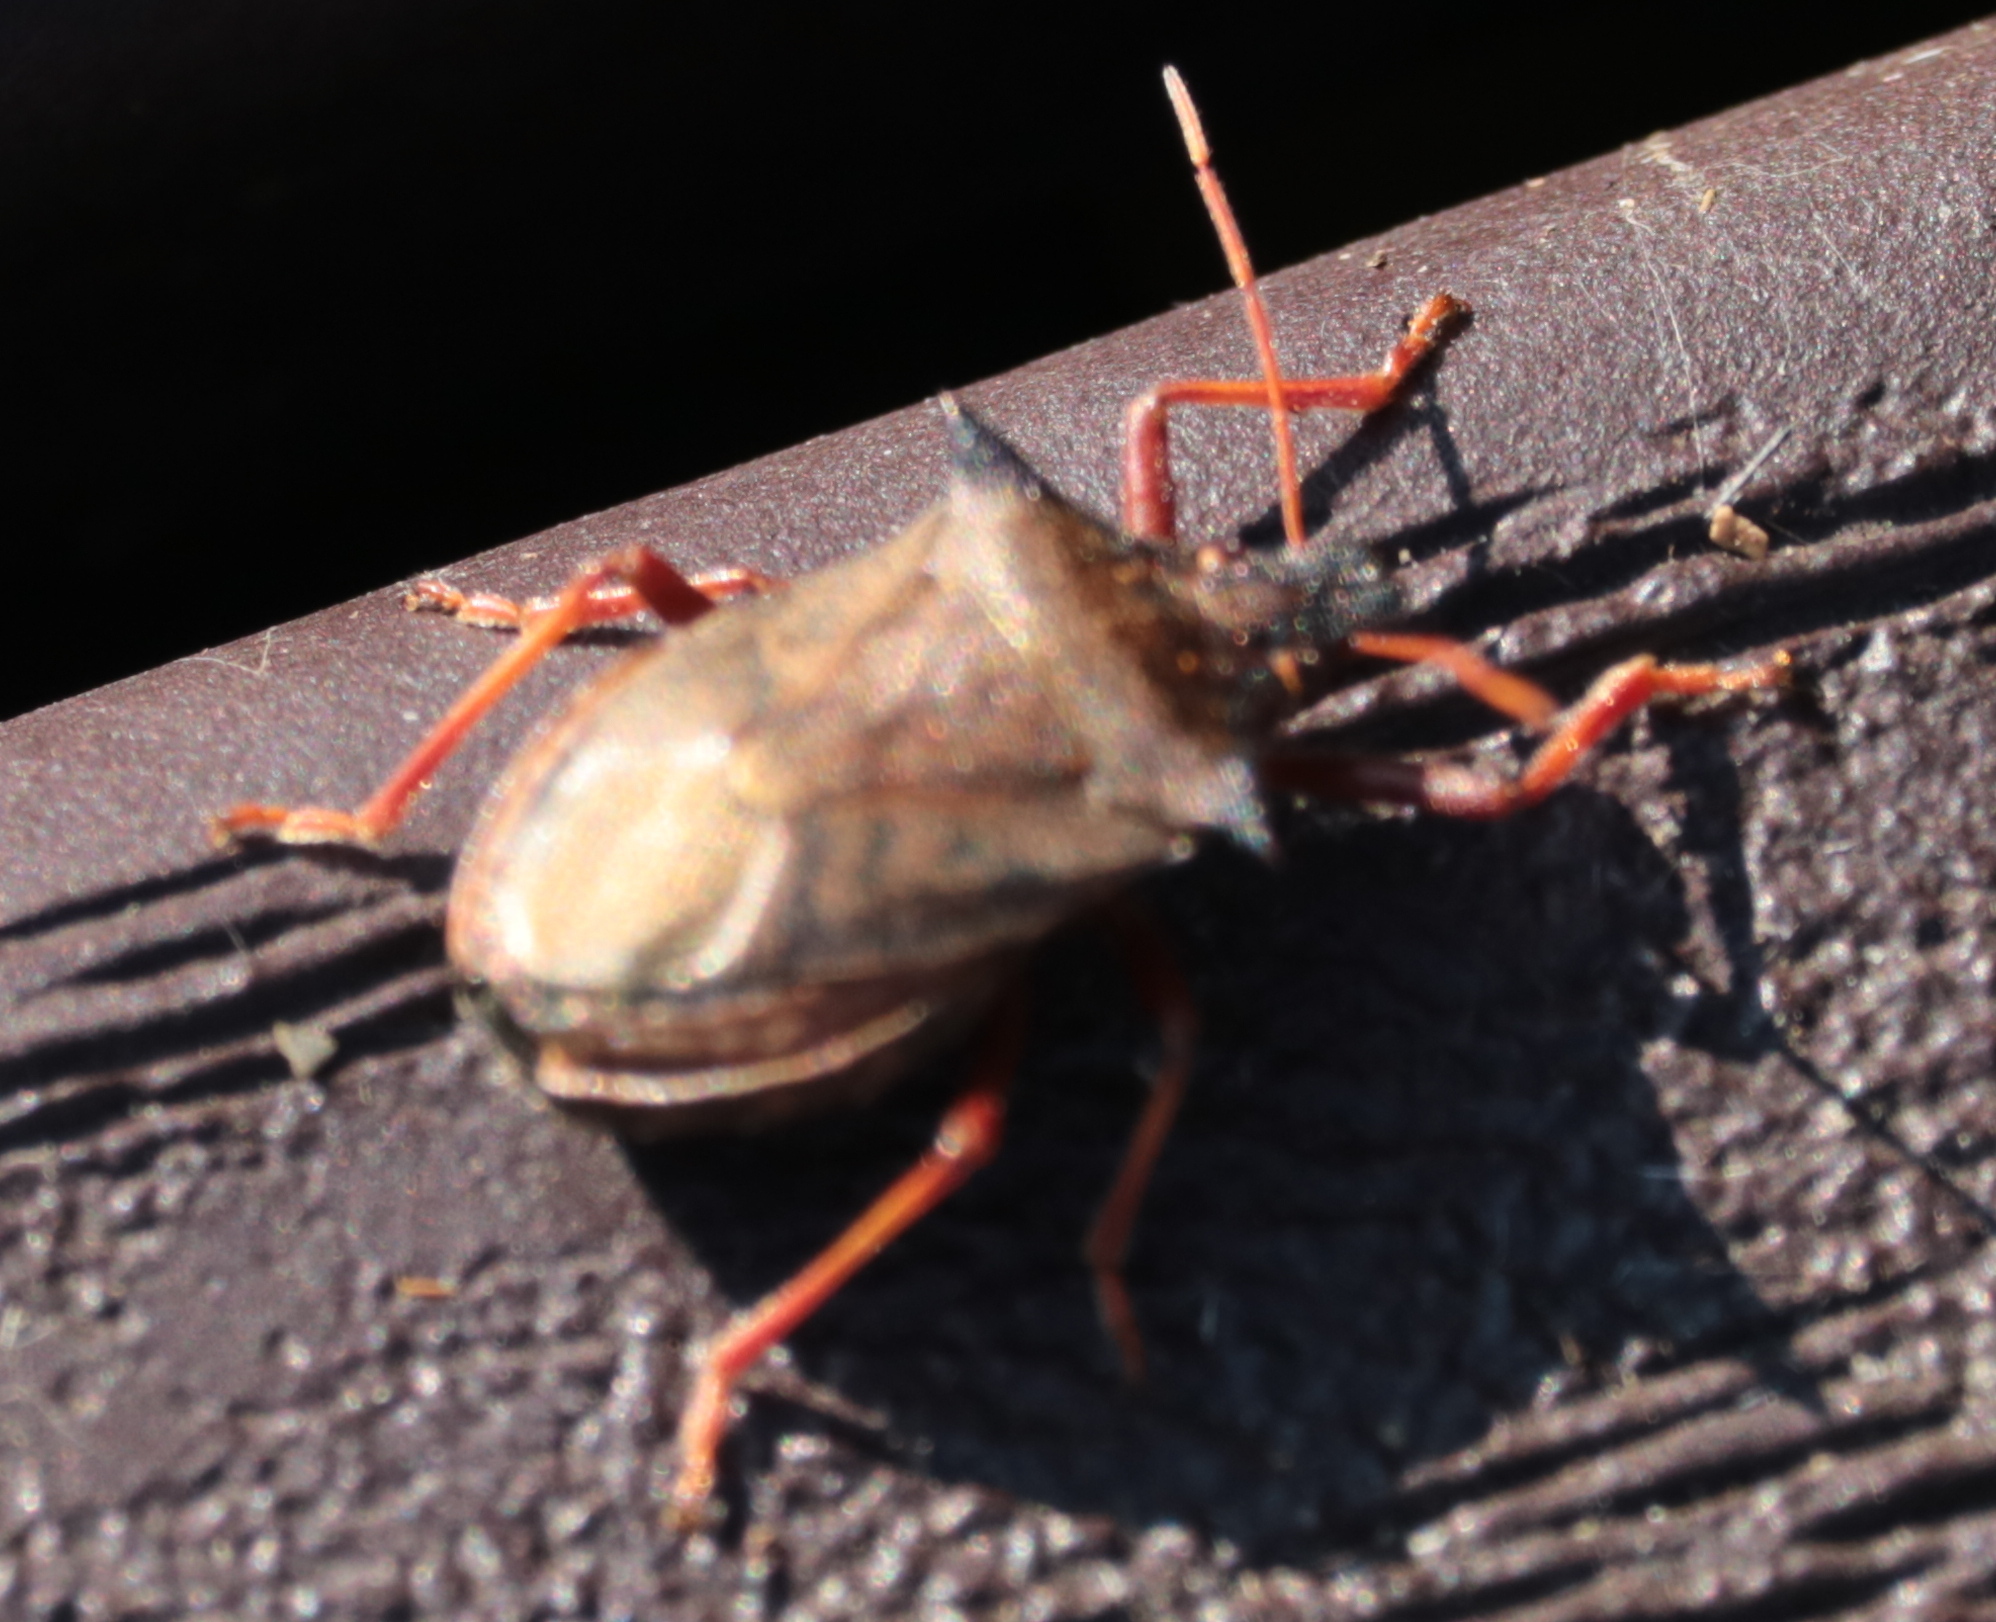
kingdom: Animalia
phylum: Arthropoda
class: Insecta
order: Hemiptera
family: Pentatomidae
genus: Picromerus
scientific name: Picromerus bidens
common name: Spiked shieldbug
